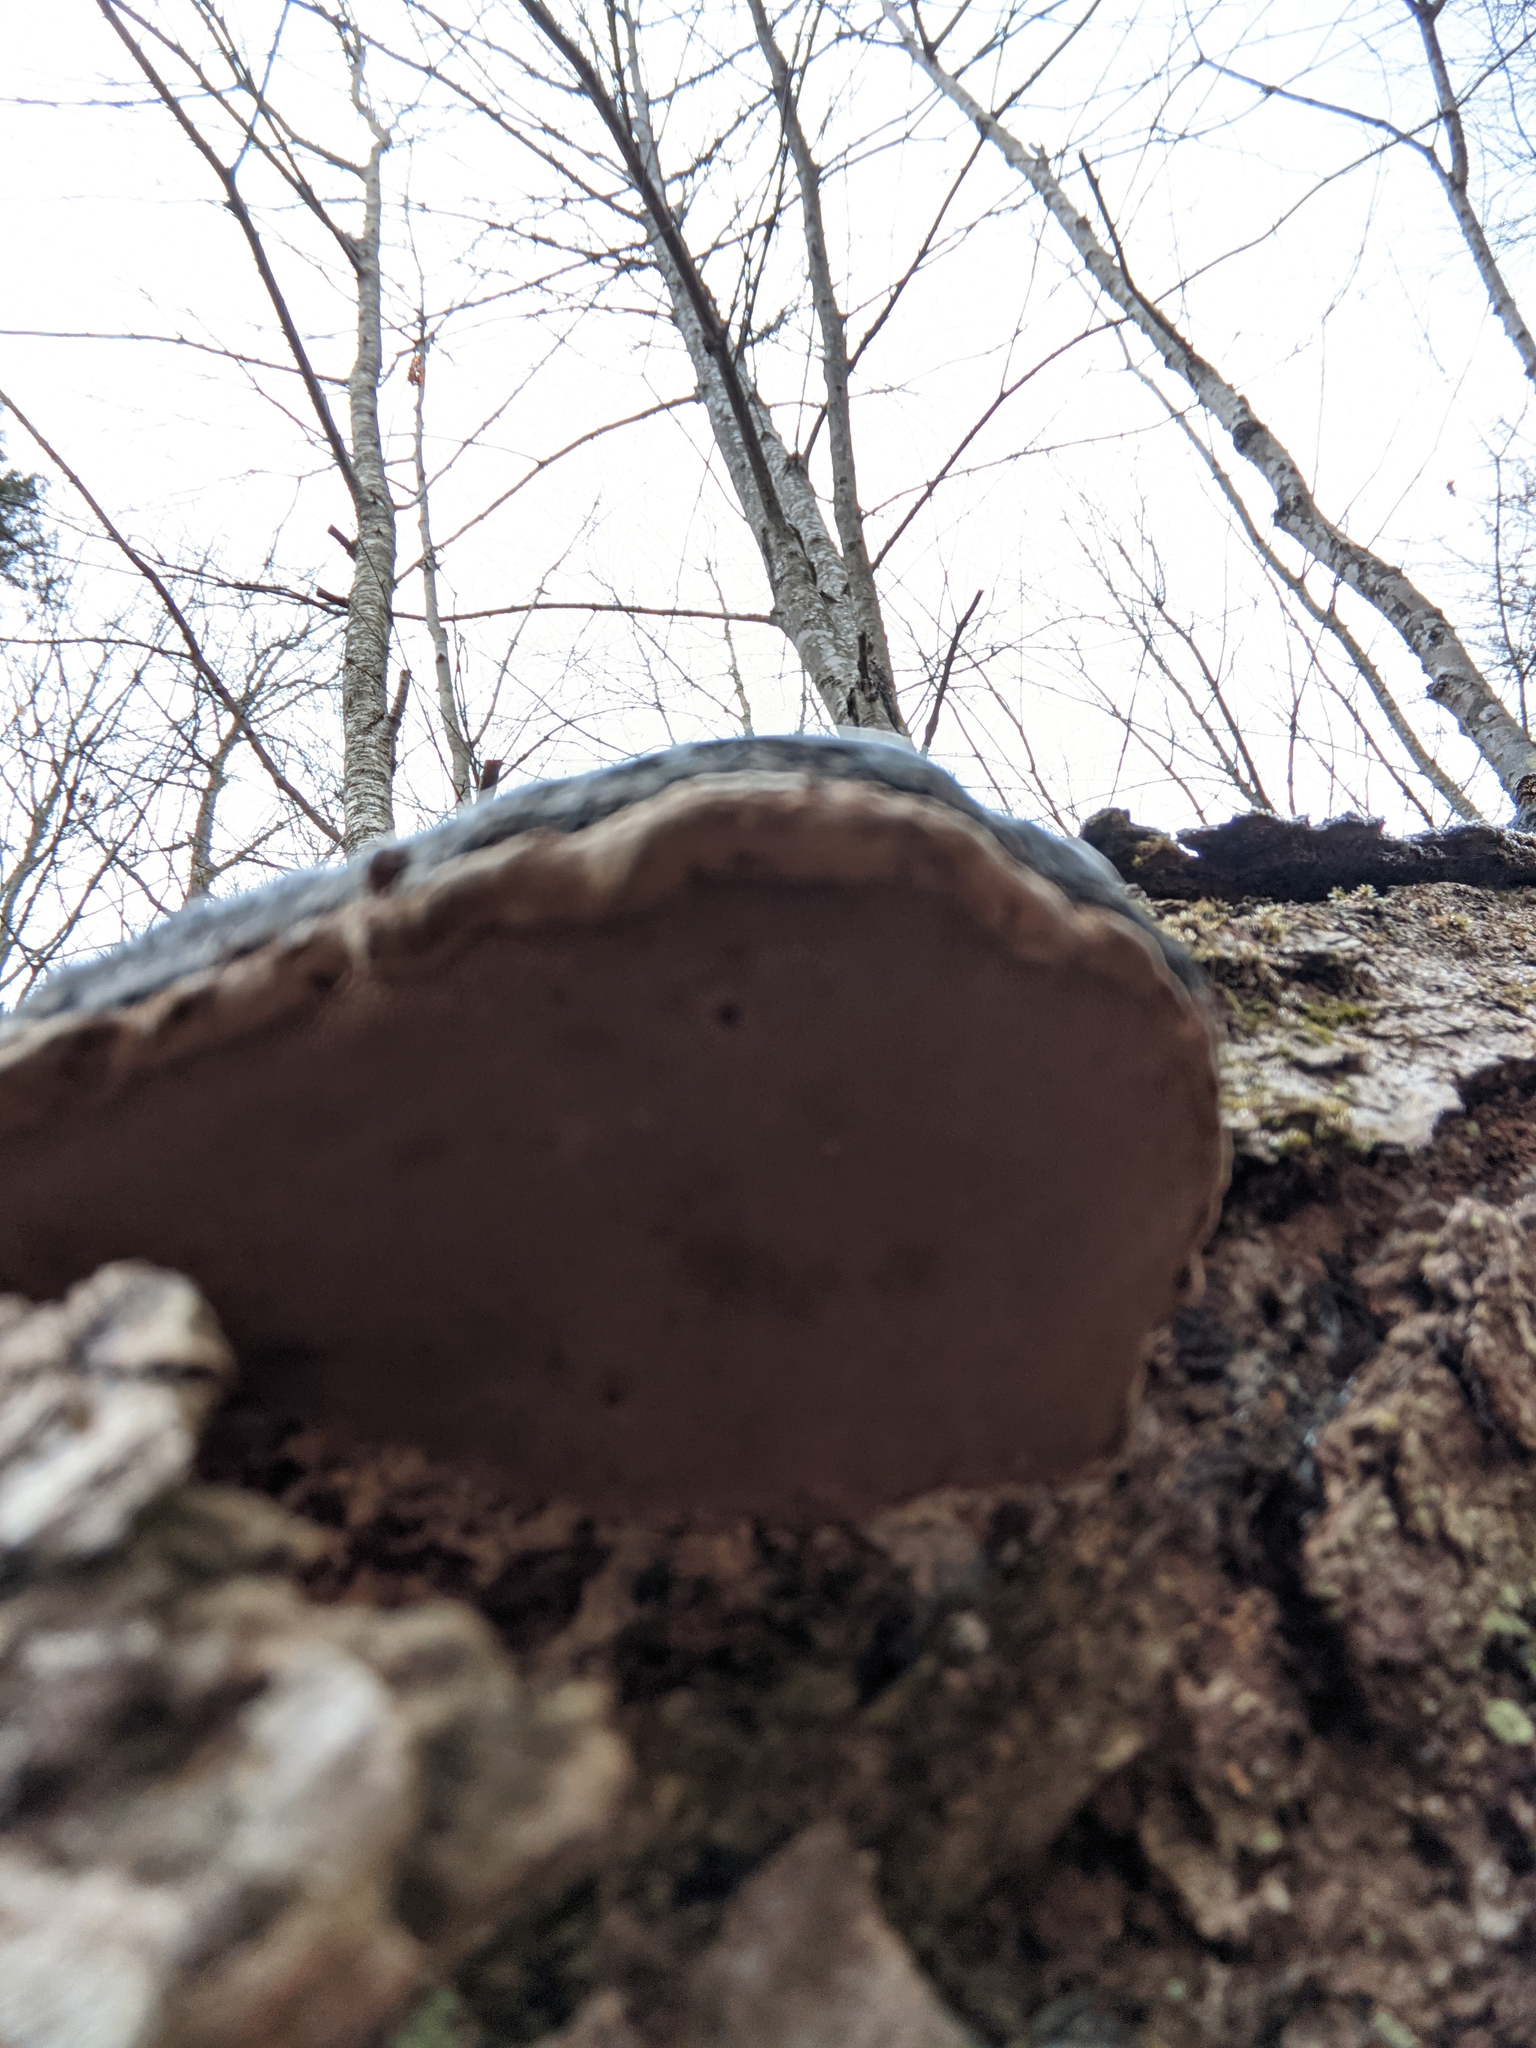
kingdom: Fungi
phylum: Basidiomycota
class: Agaricomycetes
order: Polyporales
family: Polyporaceae
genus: Fomes
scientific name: Fomes fomentarius
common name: Hoof fungus
